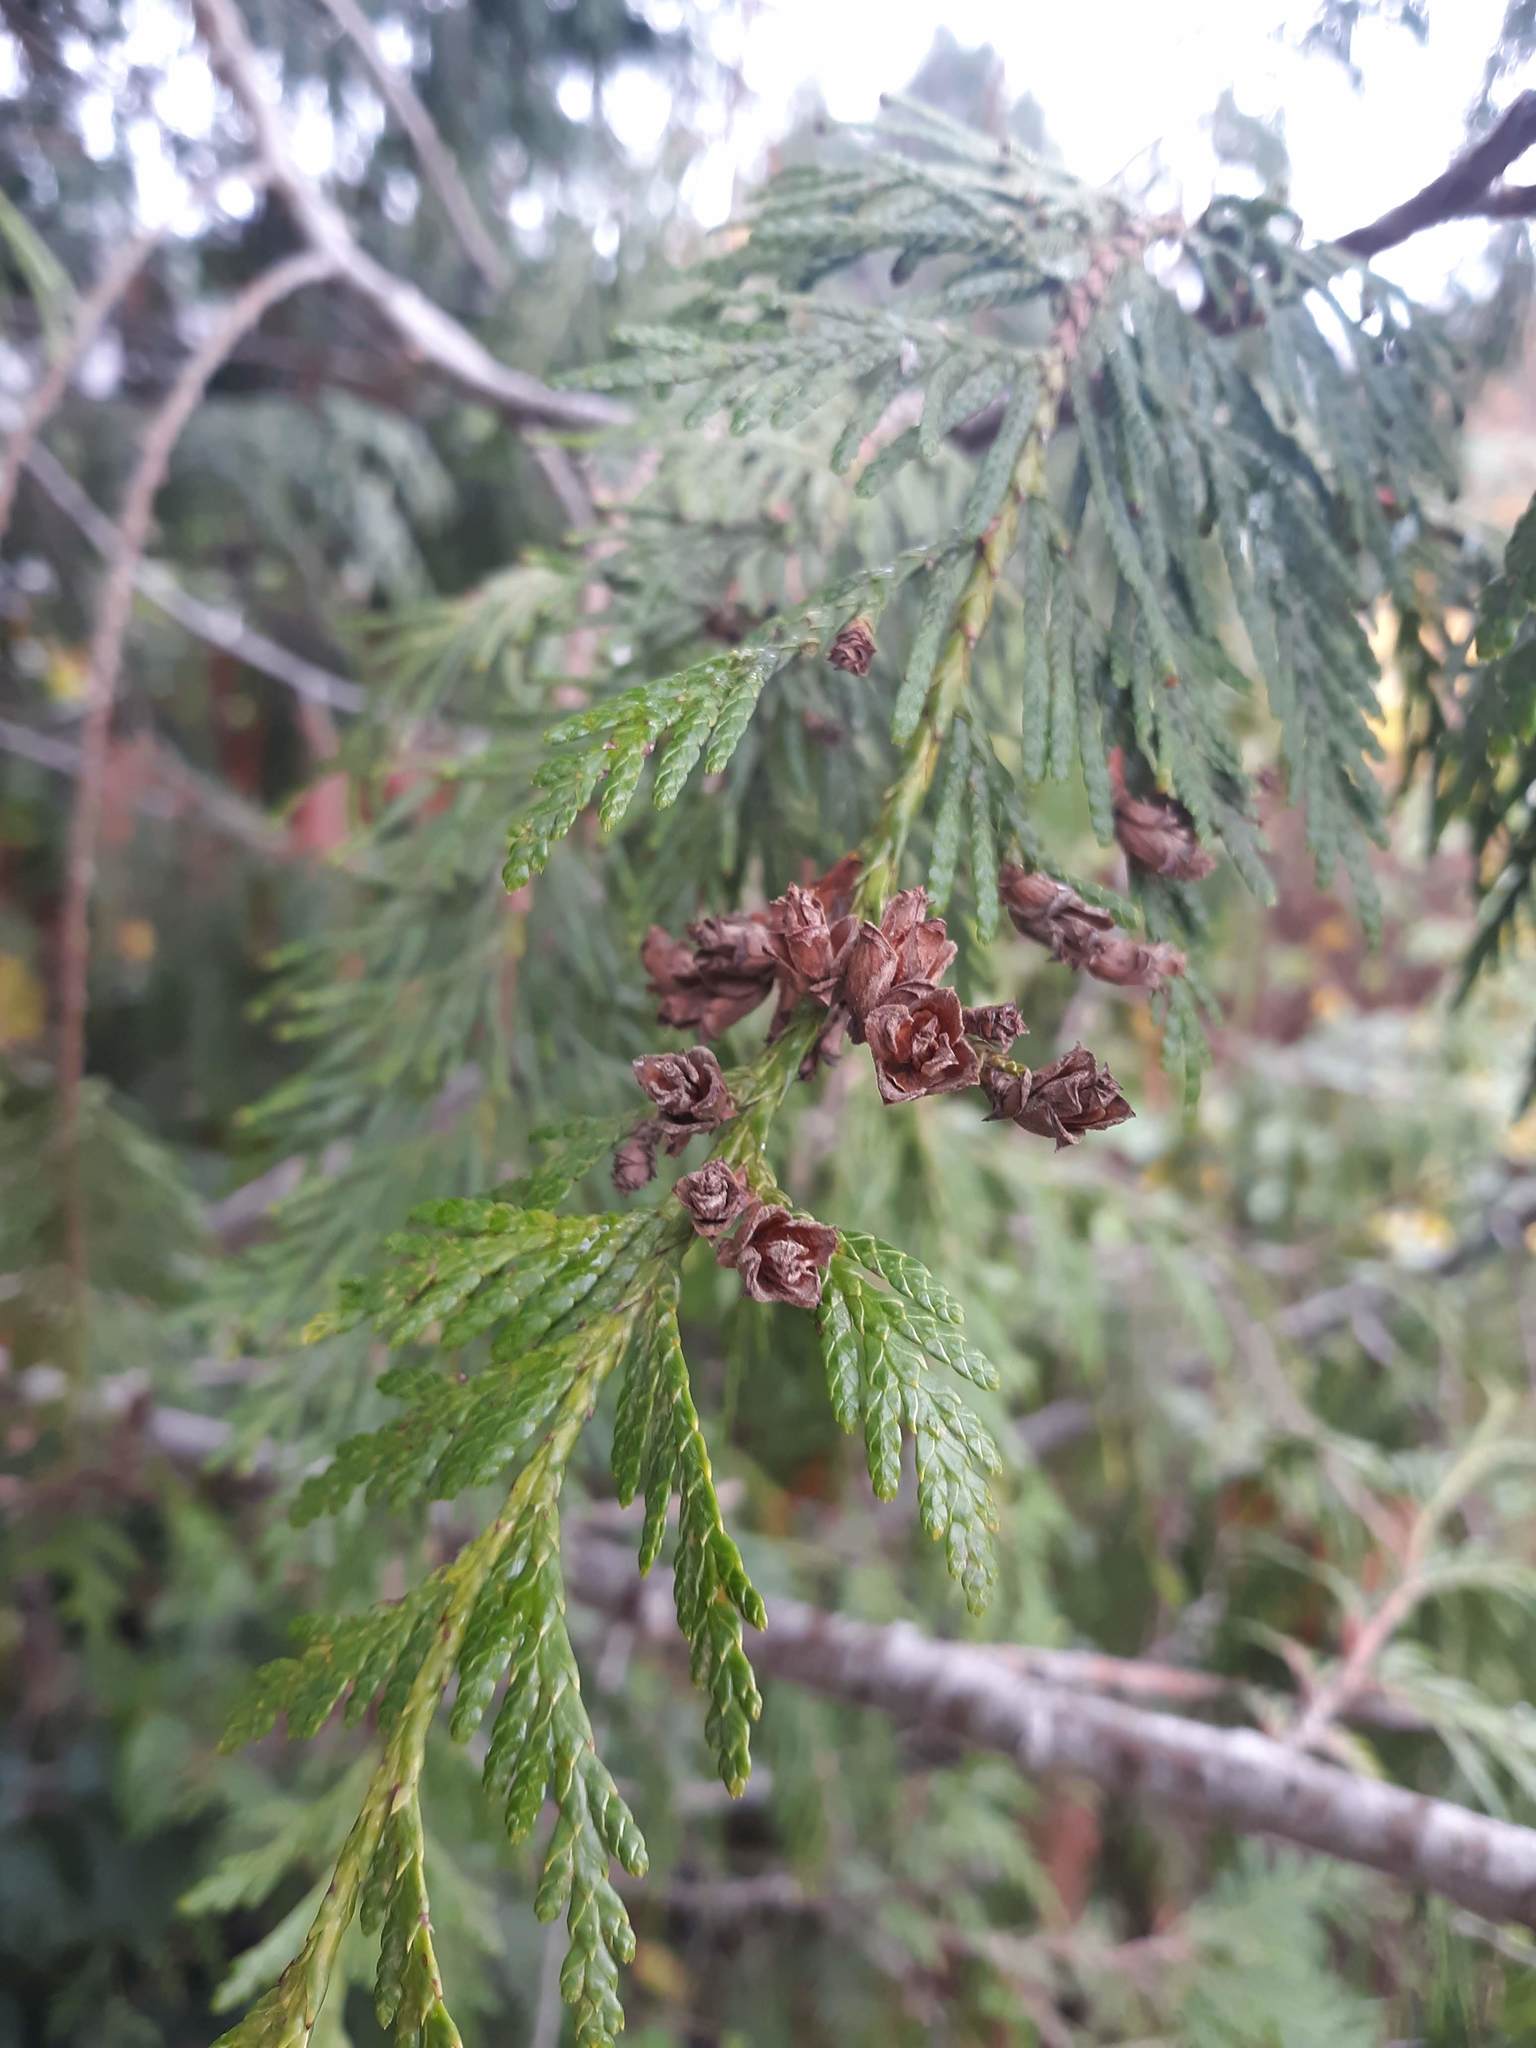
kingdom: Plantae
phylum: Tracheophyta
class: Pinopsida
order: Pinales
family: Cupressaceae
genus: Thuja
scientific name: Thuja plicata
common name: Western red-cedar
